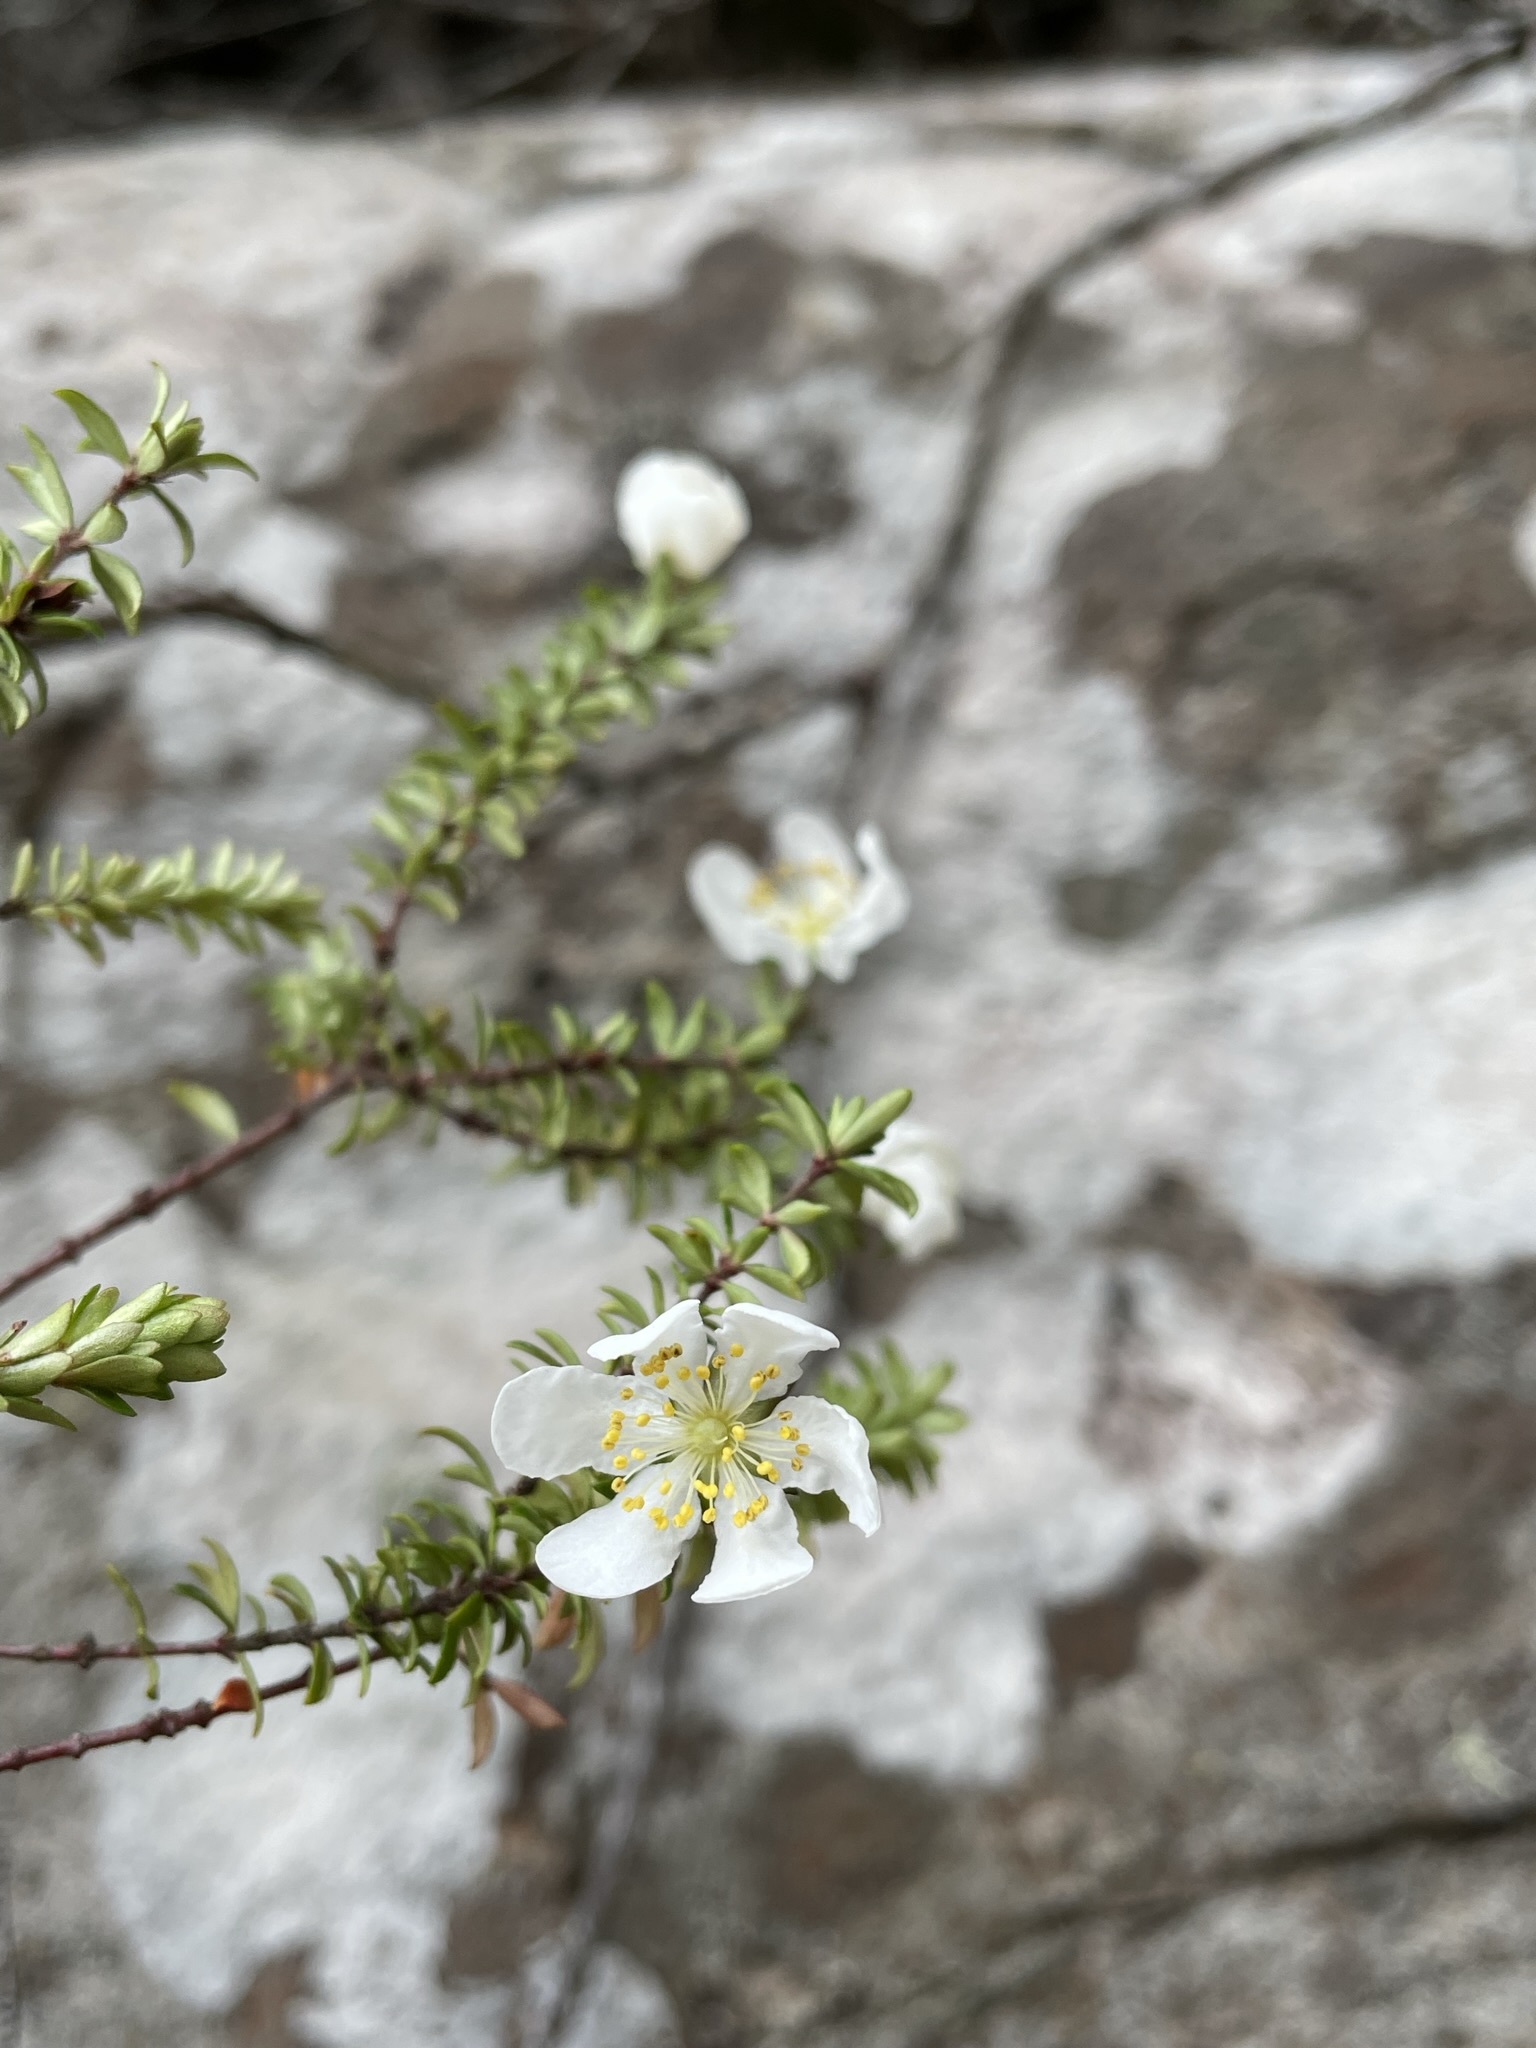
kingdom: Plantae
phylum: Tracheophyta
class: Magnoliopsida
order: Oxalidales
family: Cunoniaceae
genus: Bauera
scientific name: Bauera rubioides
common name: River-rose
